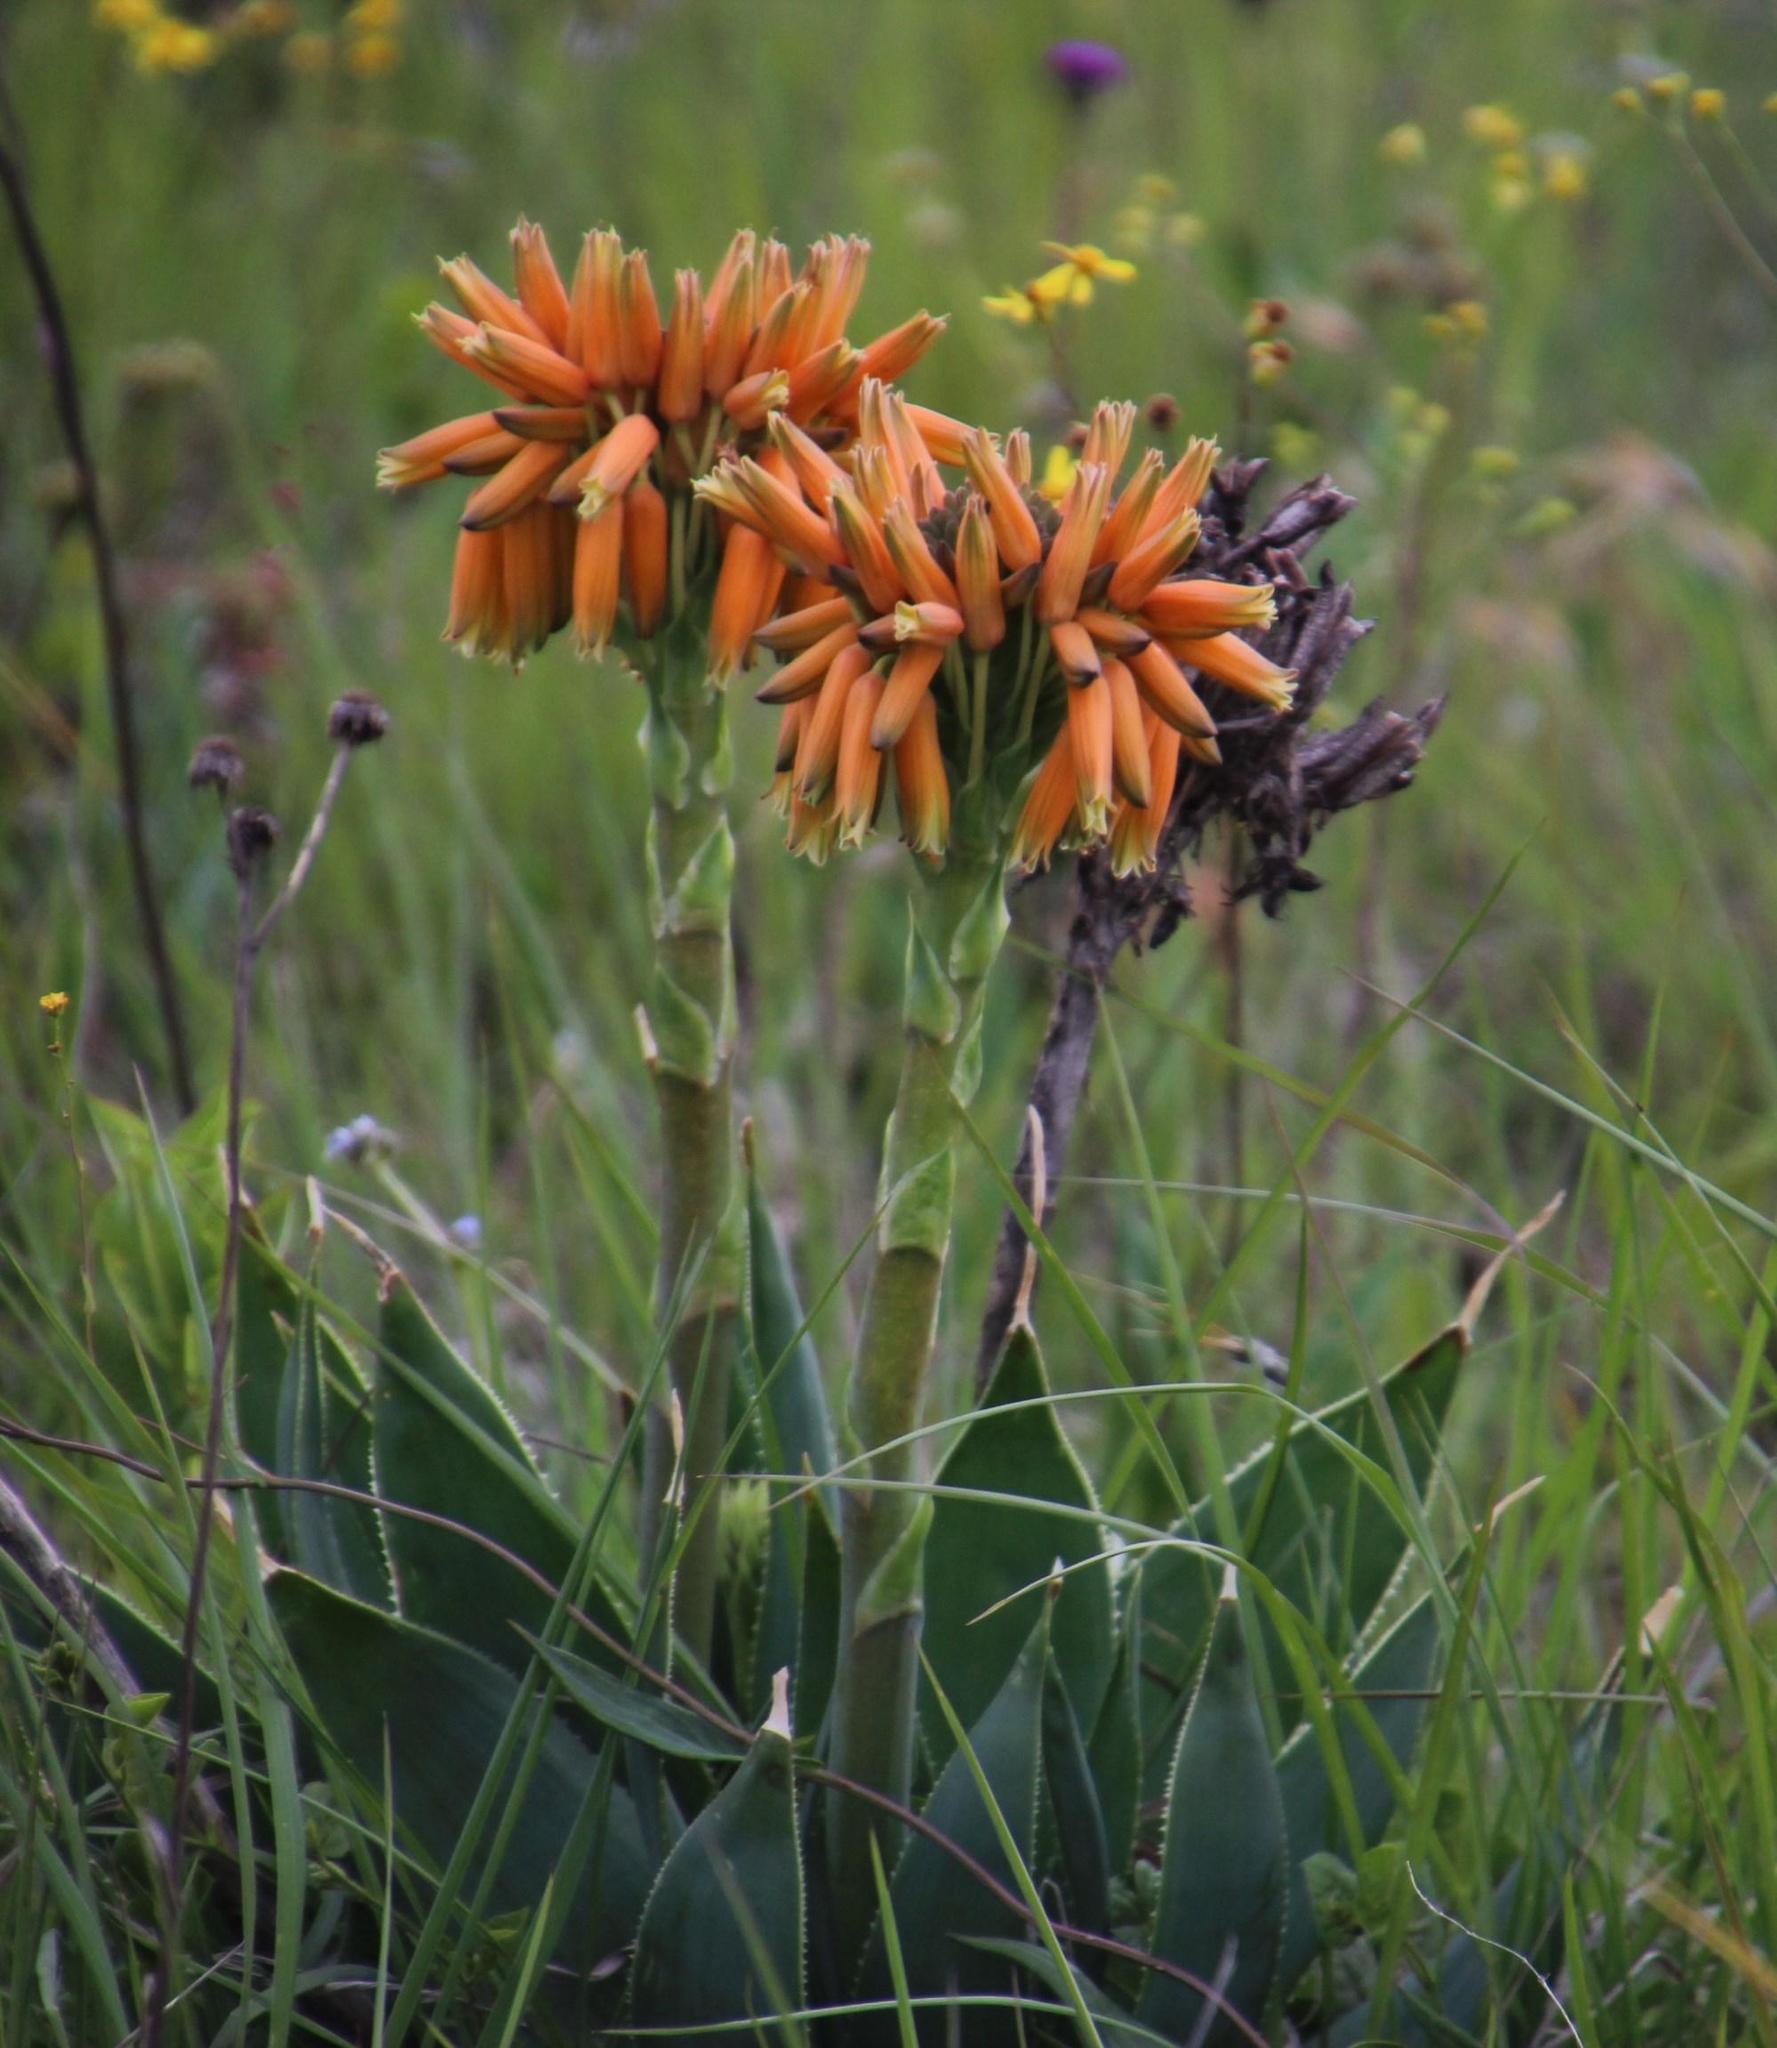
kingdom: Plantae
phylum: Tracheophyta
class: Liliopsida
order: Asparagales
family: Asphodelaceae
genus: Aloe
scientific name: Aloe ecklonis
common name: Ecklon's aloe
